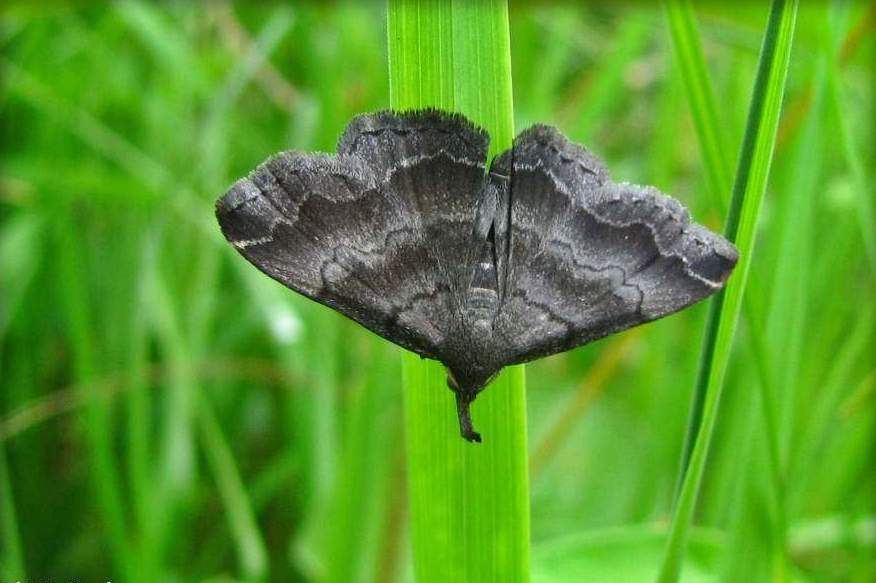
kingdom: Animalia
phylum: Arthropoda
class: Insecta
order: Lepidoptera
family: Erebidae
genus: Phalaenostola
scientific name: Phalaenostola larentioides
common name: Black-banded owlet
